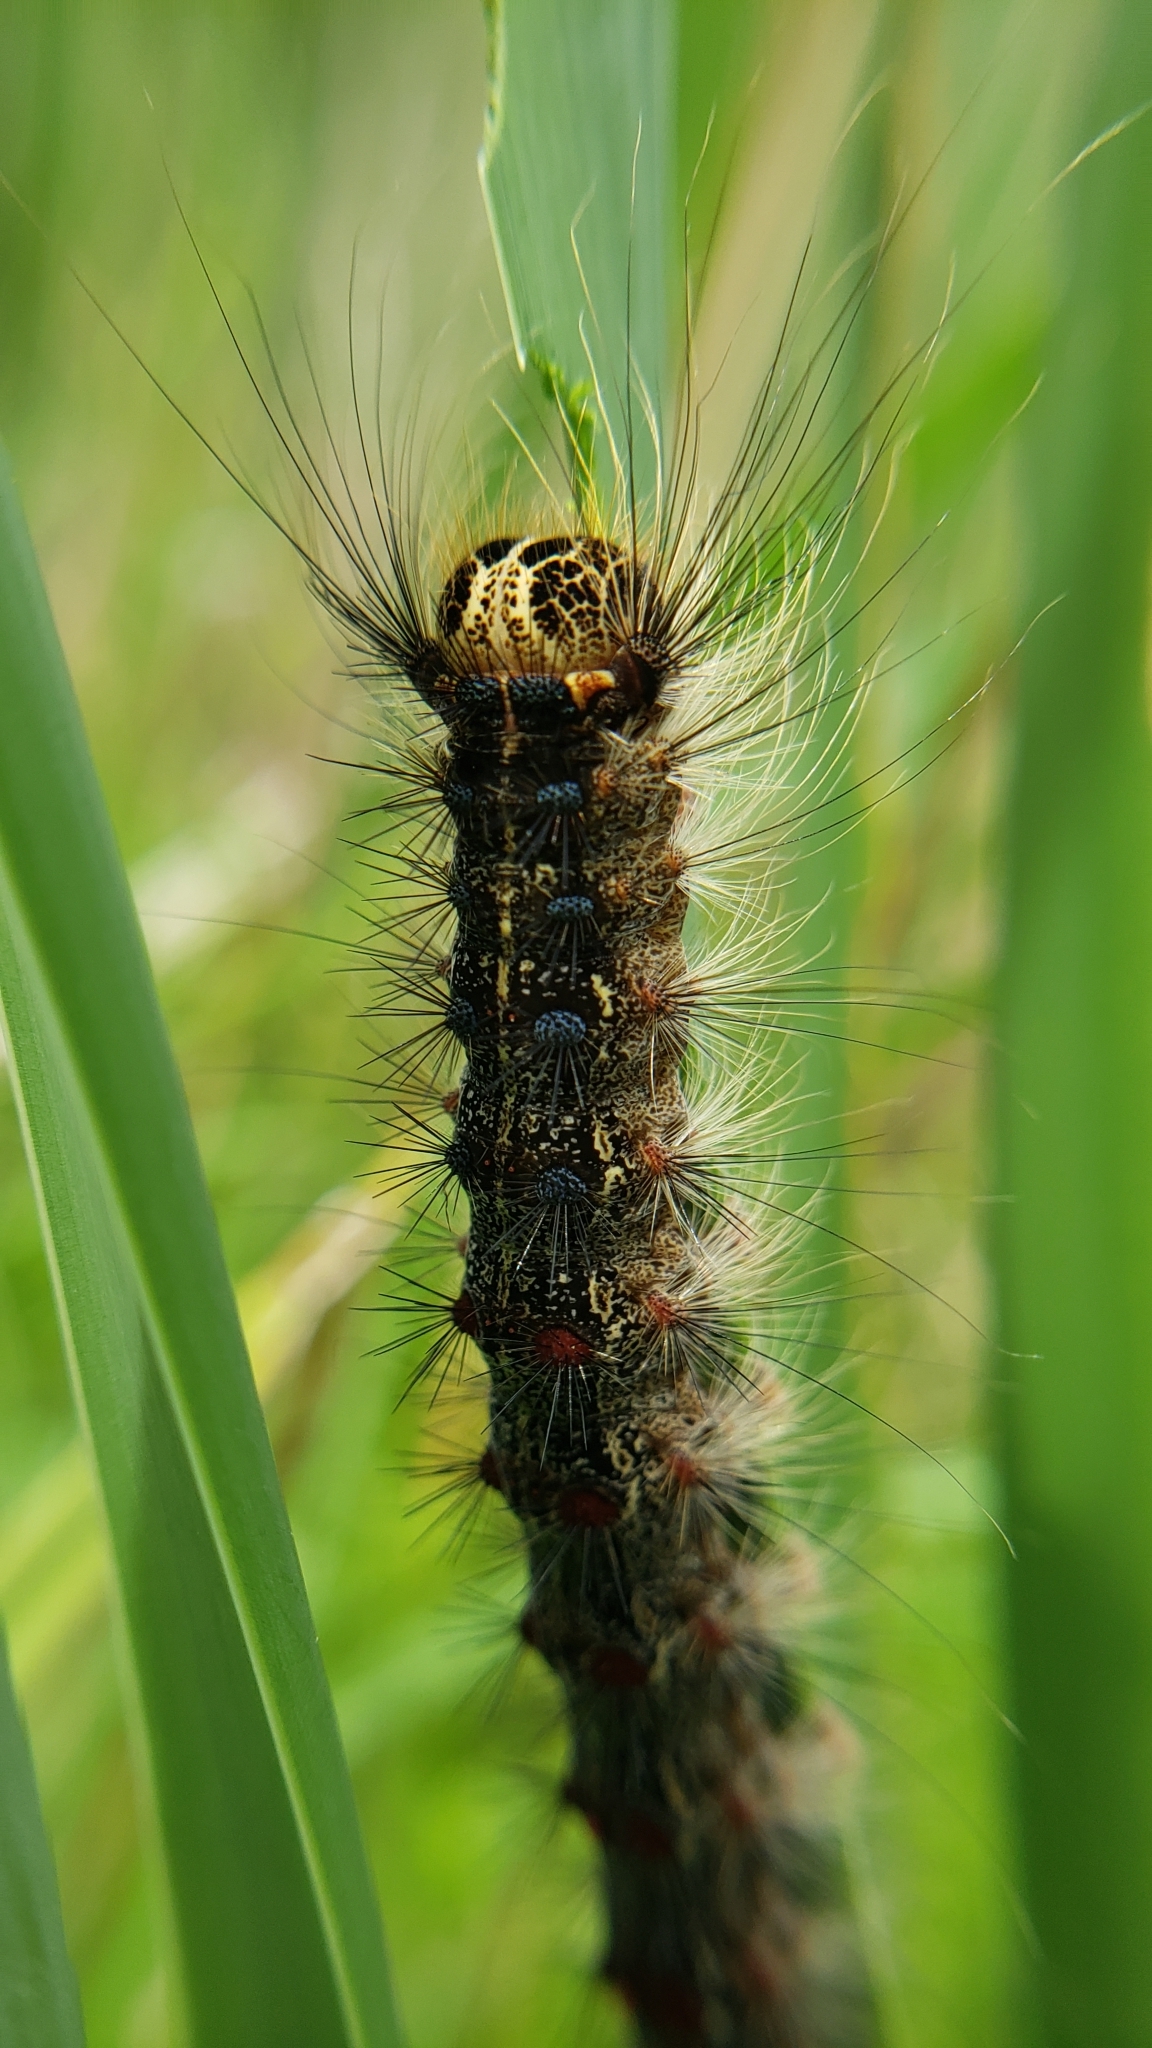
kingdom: Animalia
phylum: Arthropoda
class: Insecta
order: Lepidoptera
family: Erebidae
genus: Lymantria
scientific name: Lymantria dispar
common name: Gypsy moth
